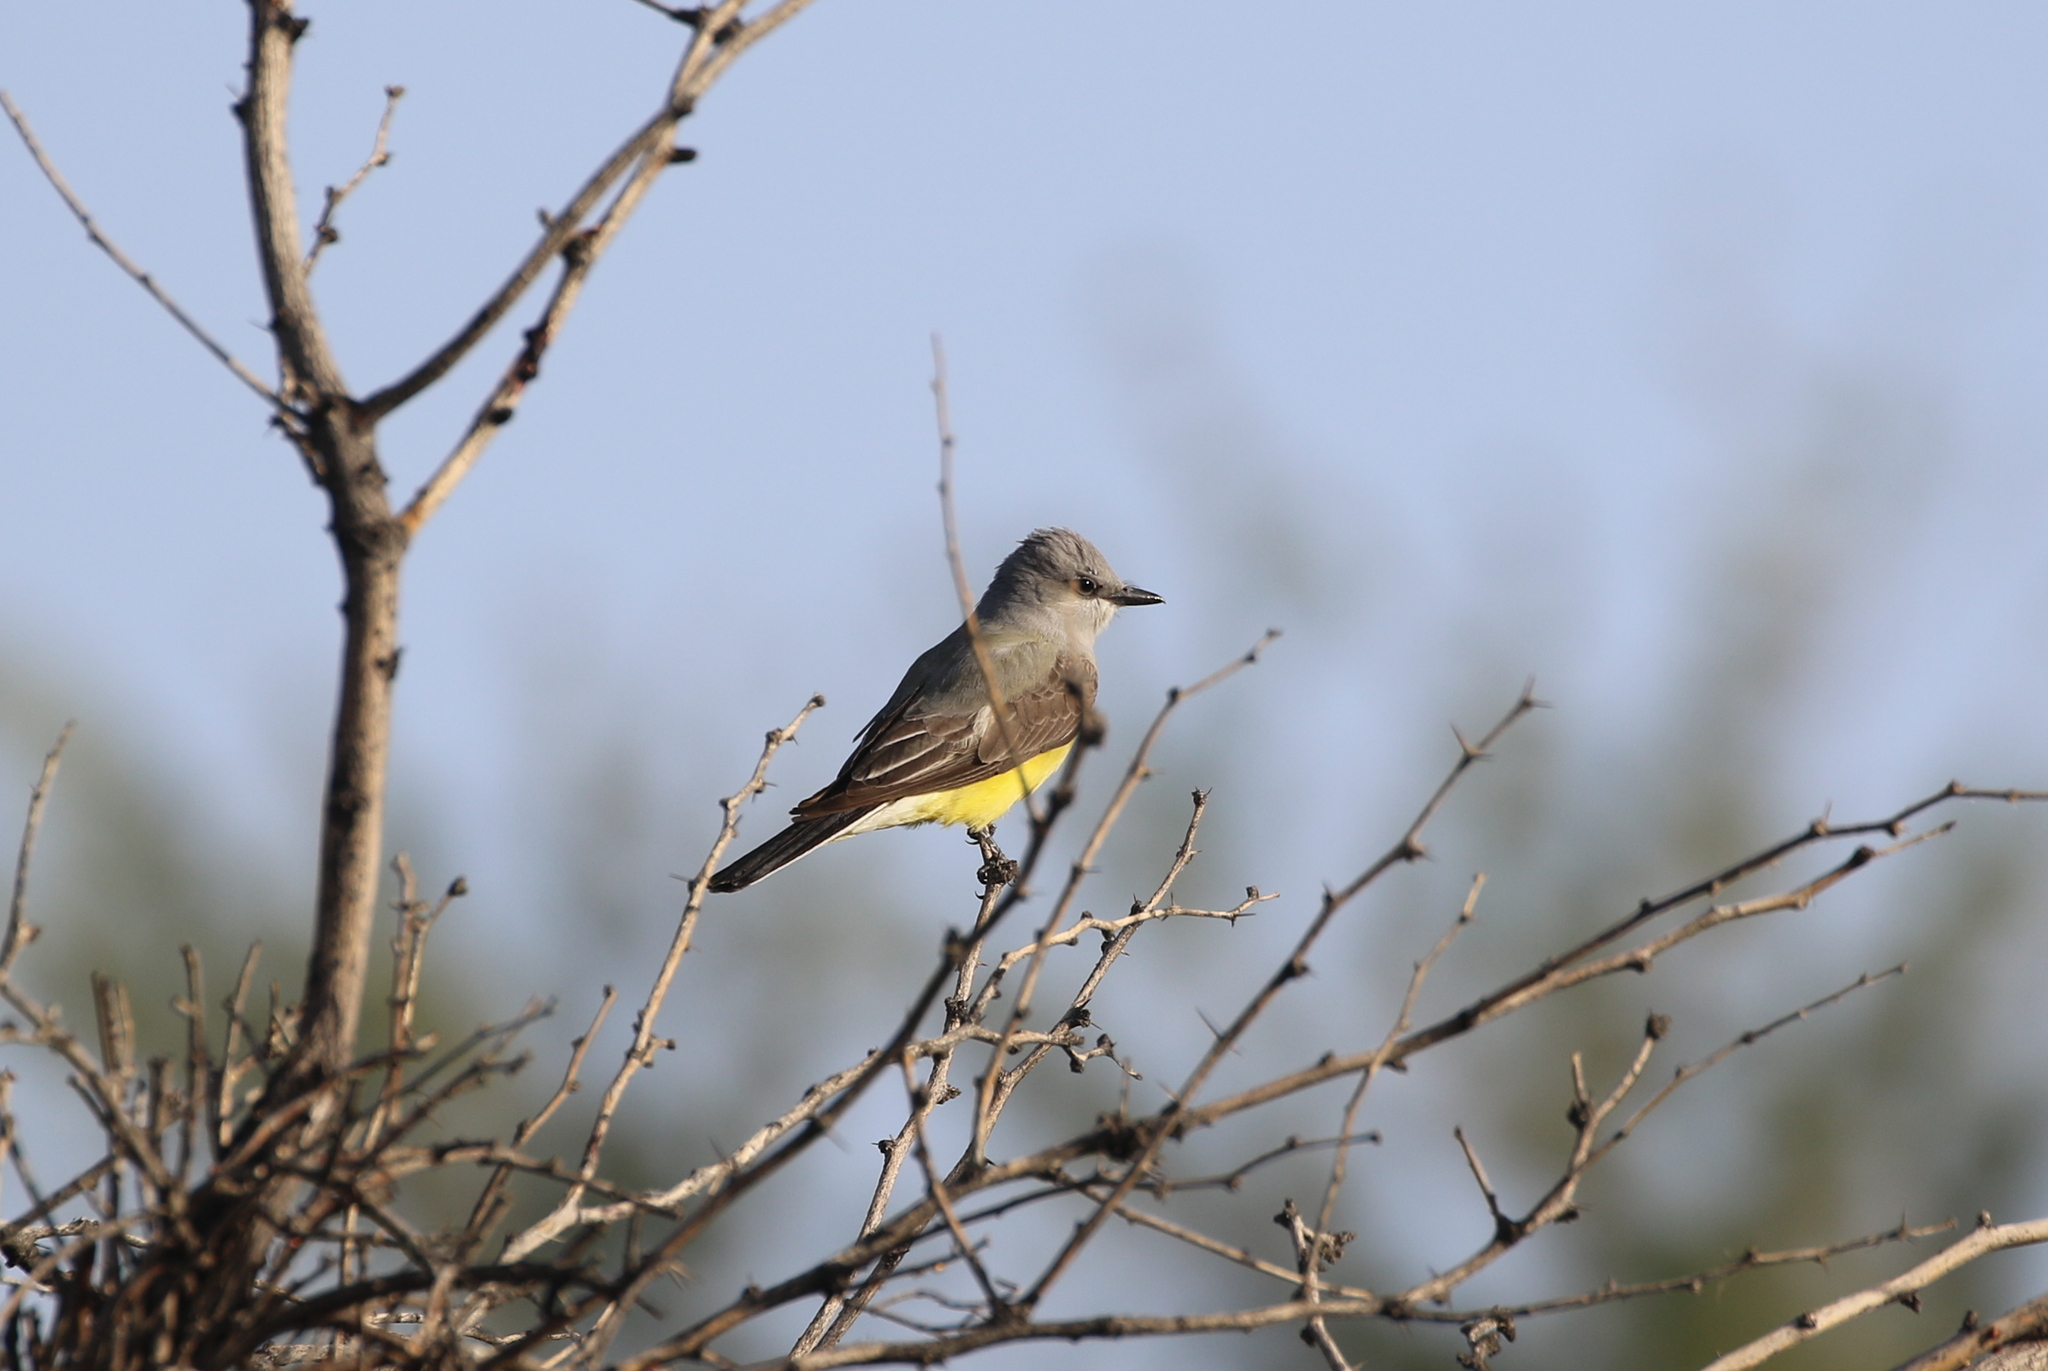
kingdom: Animalia
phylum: Chordata
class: Aves
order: Passeriformes
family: Tyrannidae
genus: Tyrannus
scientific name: Tyrannus verticalis
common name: Western kingbird
